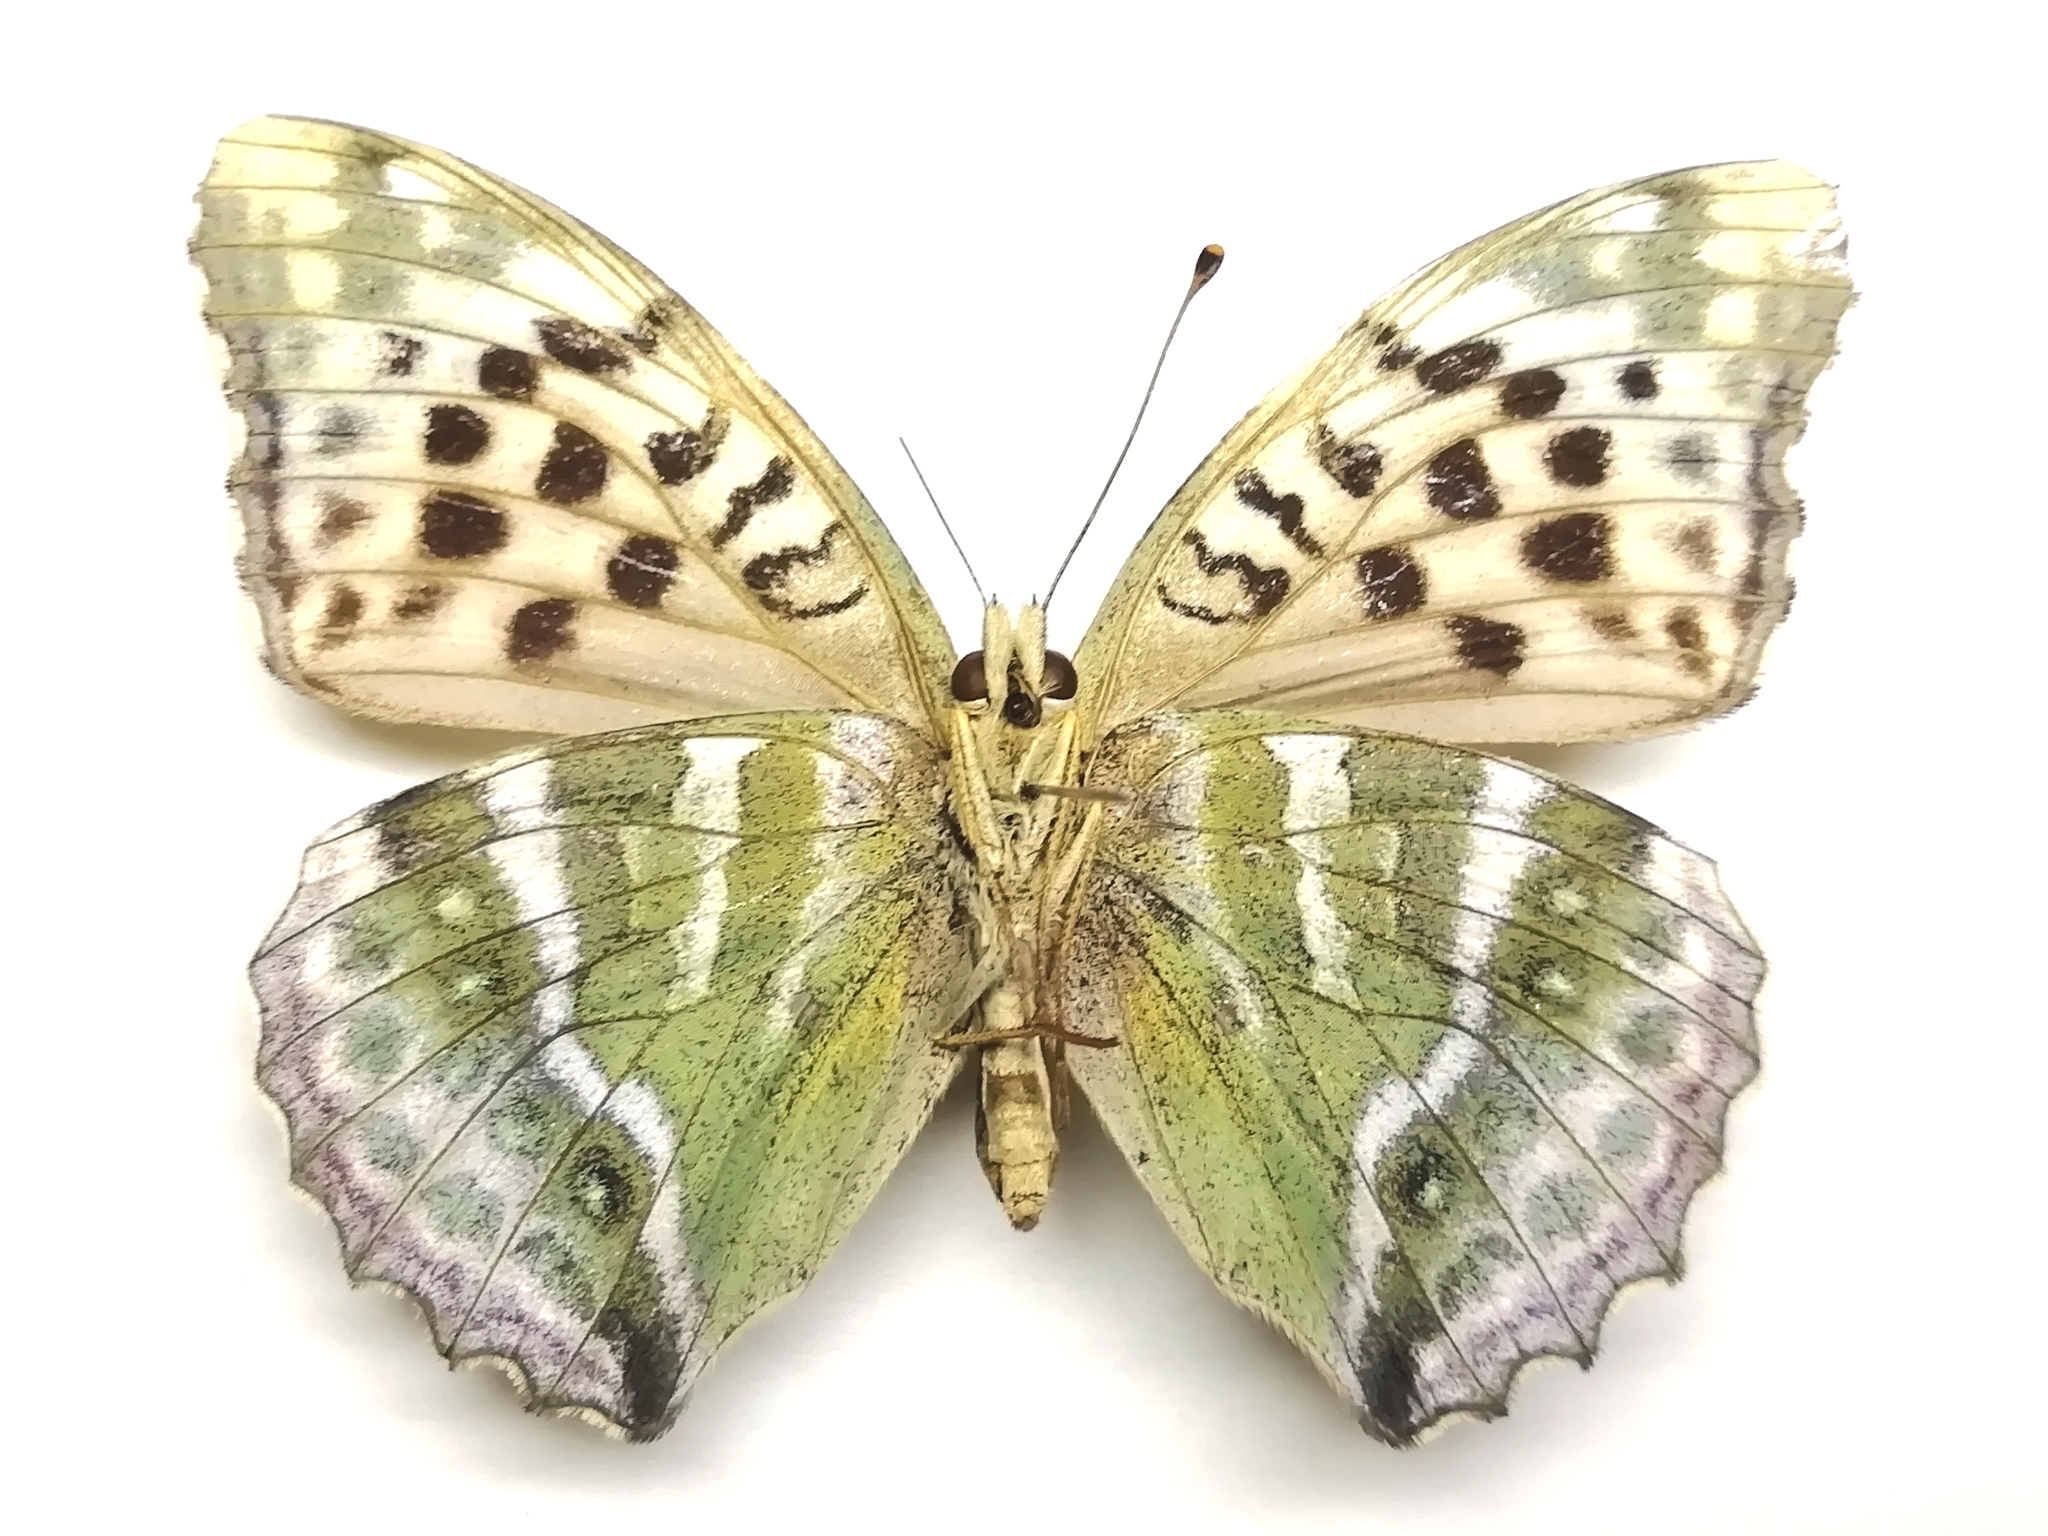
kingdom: Animalia
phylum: Arthropoda
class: Insecta
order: Lepidoptera
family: Nymphalidae
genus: Argynnis
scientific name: Argynnis paphia
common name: Silver-washed fritillary
